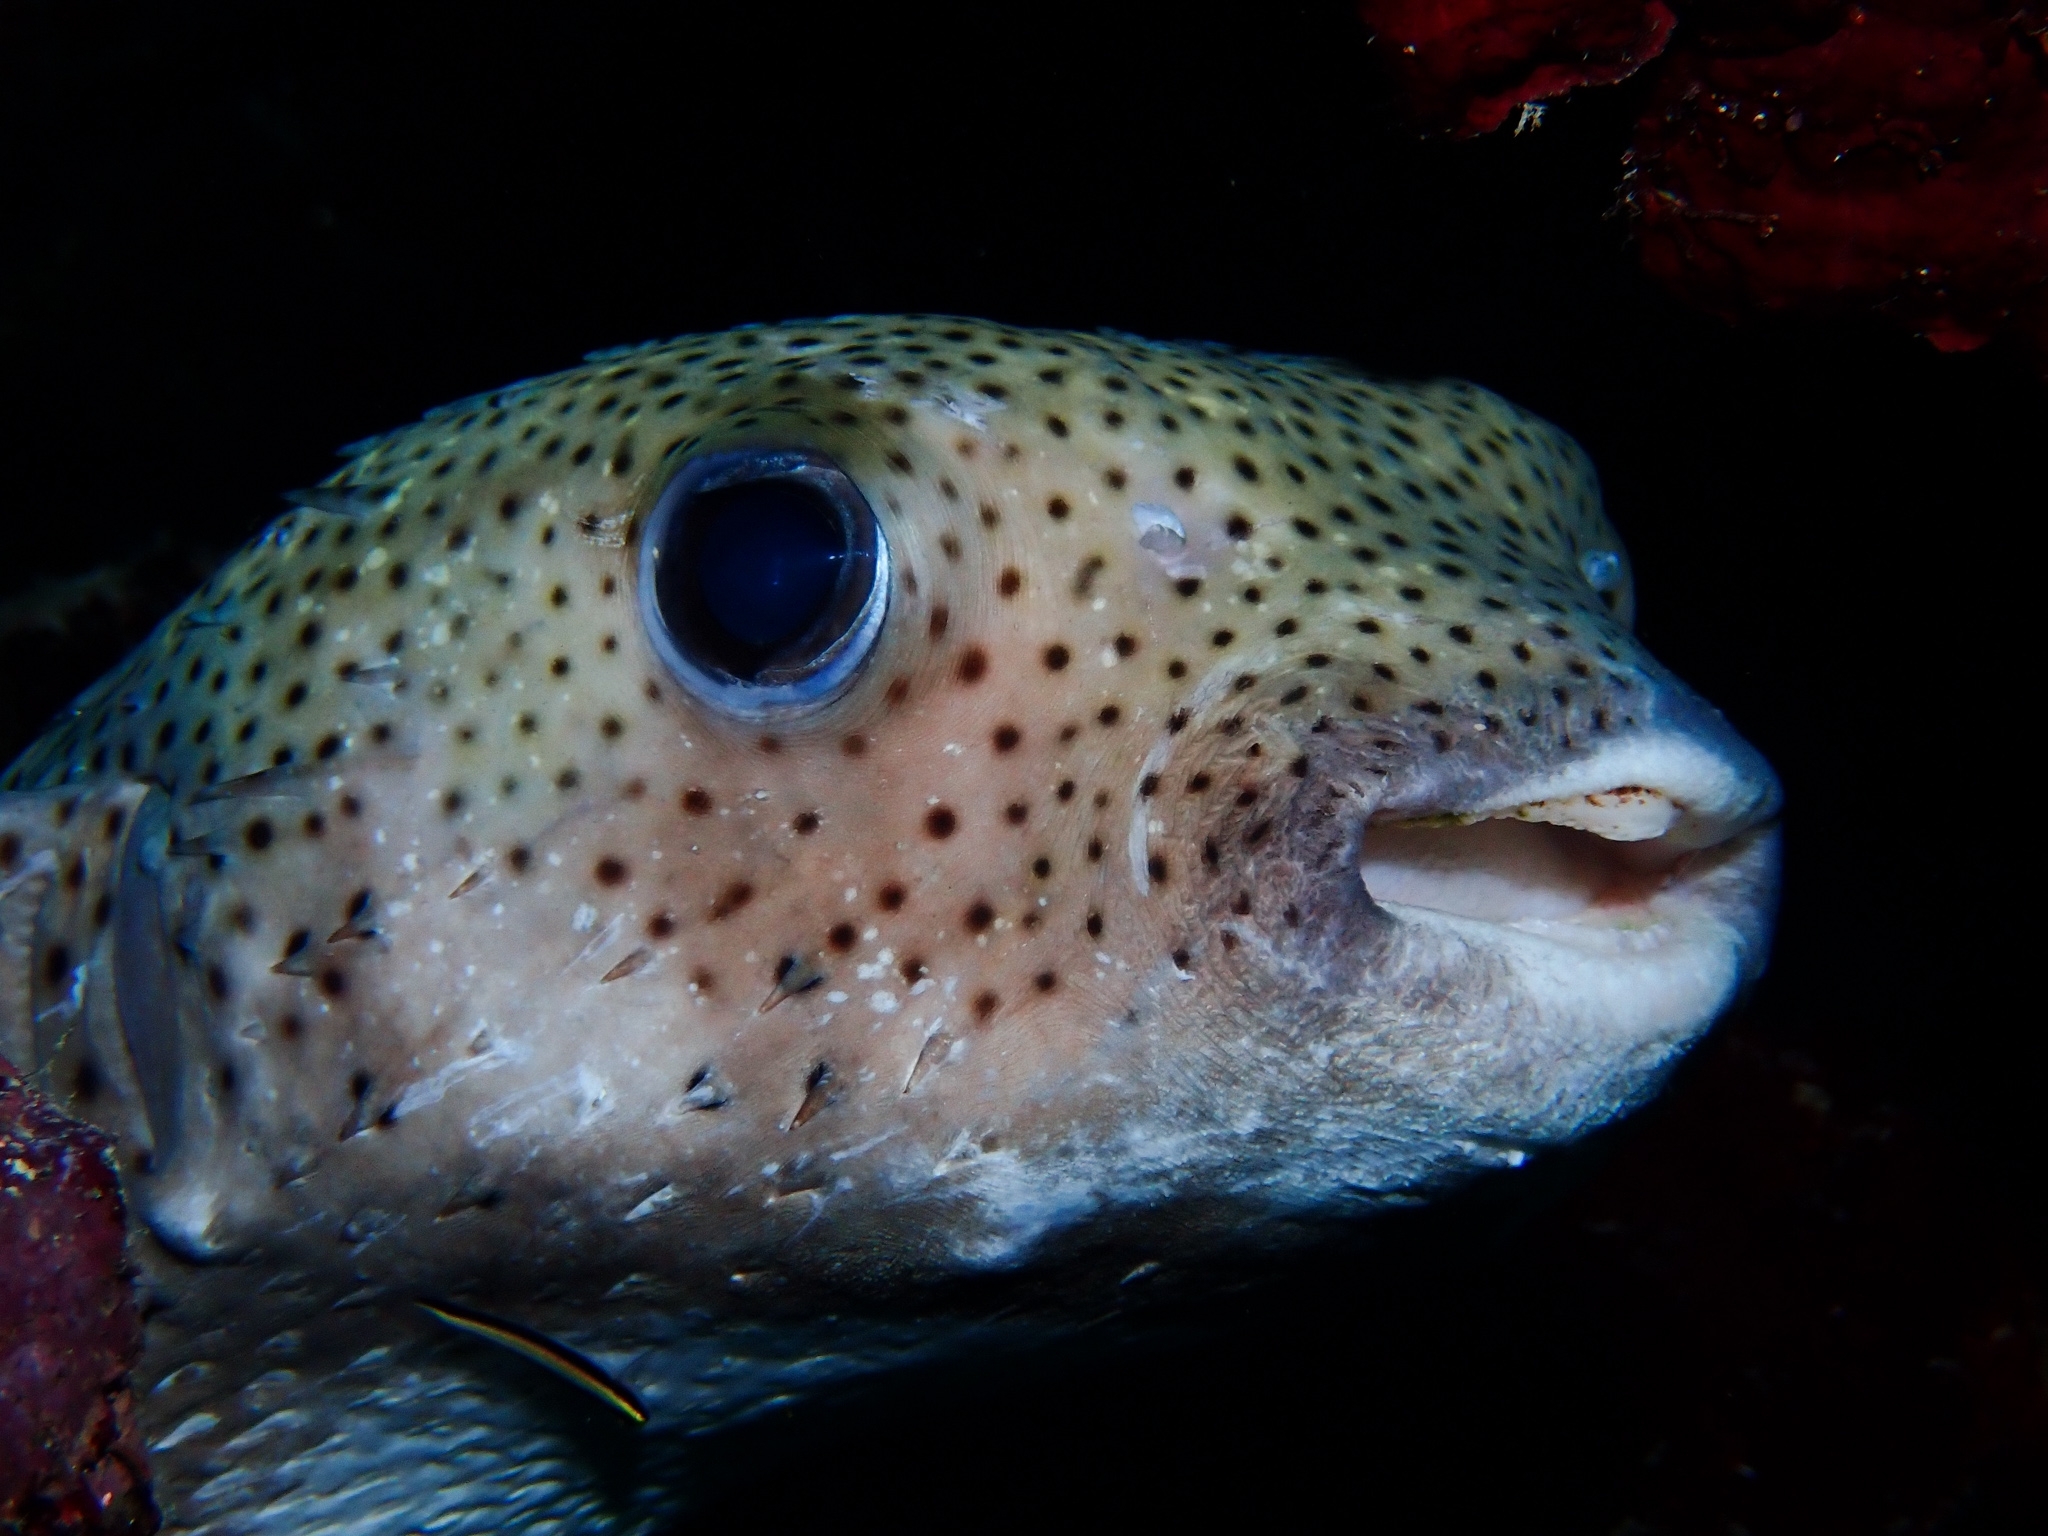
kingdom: Animalia
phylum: Chordata
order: Tetraodontiformes
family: Diodontidae
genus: Diodon
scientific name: Diodon hystrix
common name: Giant porcupinefish
